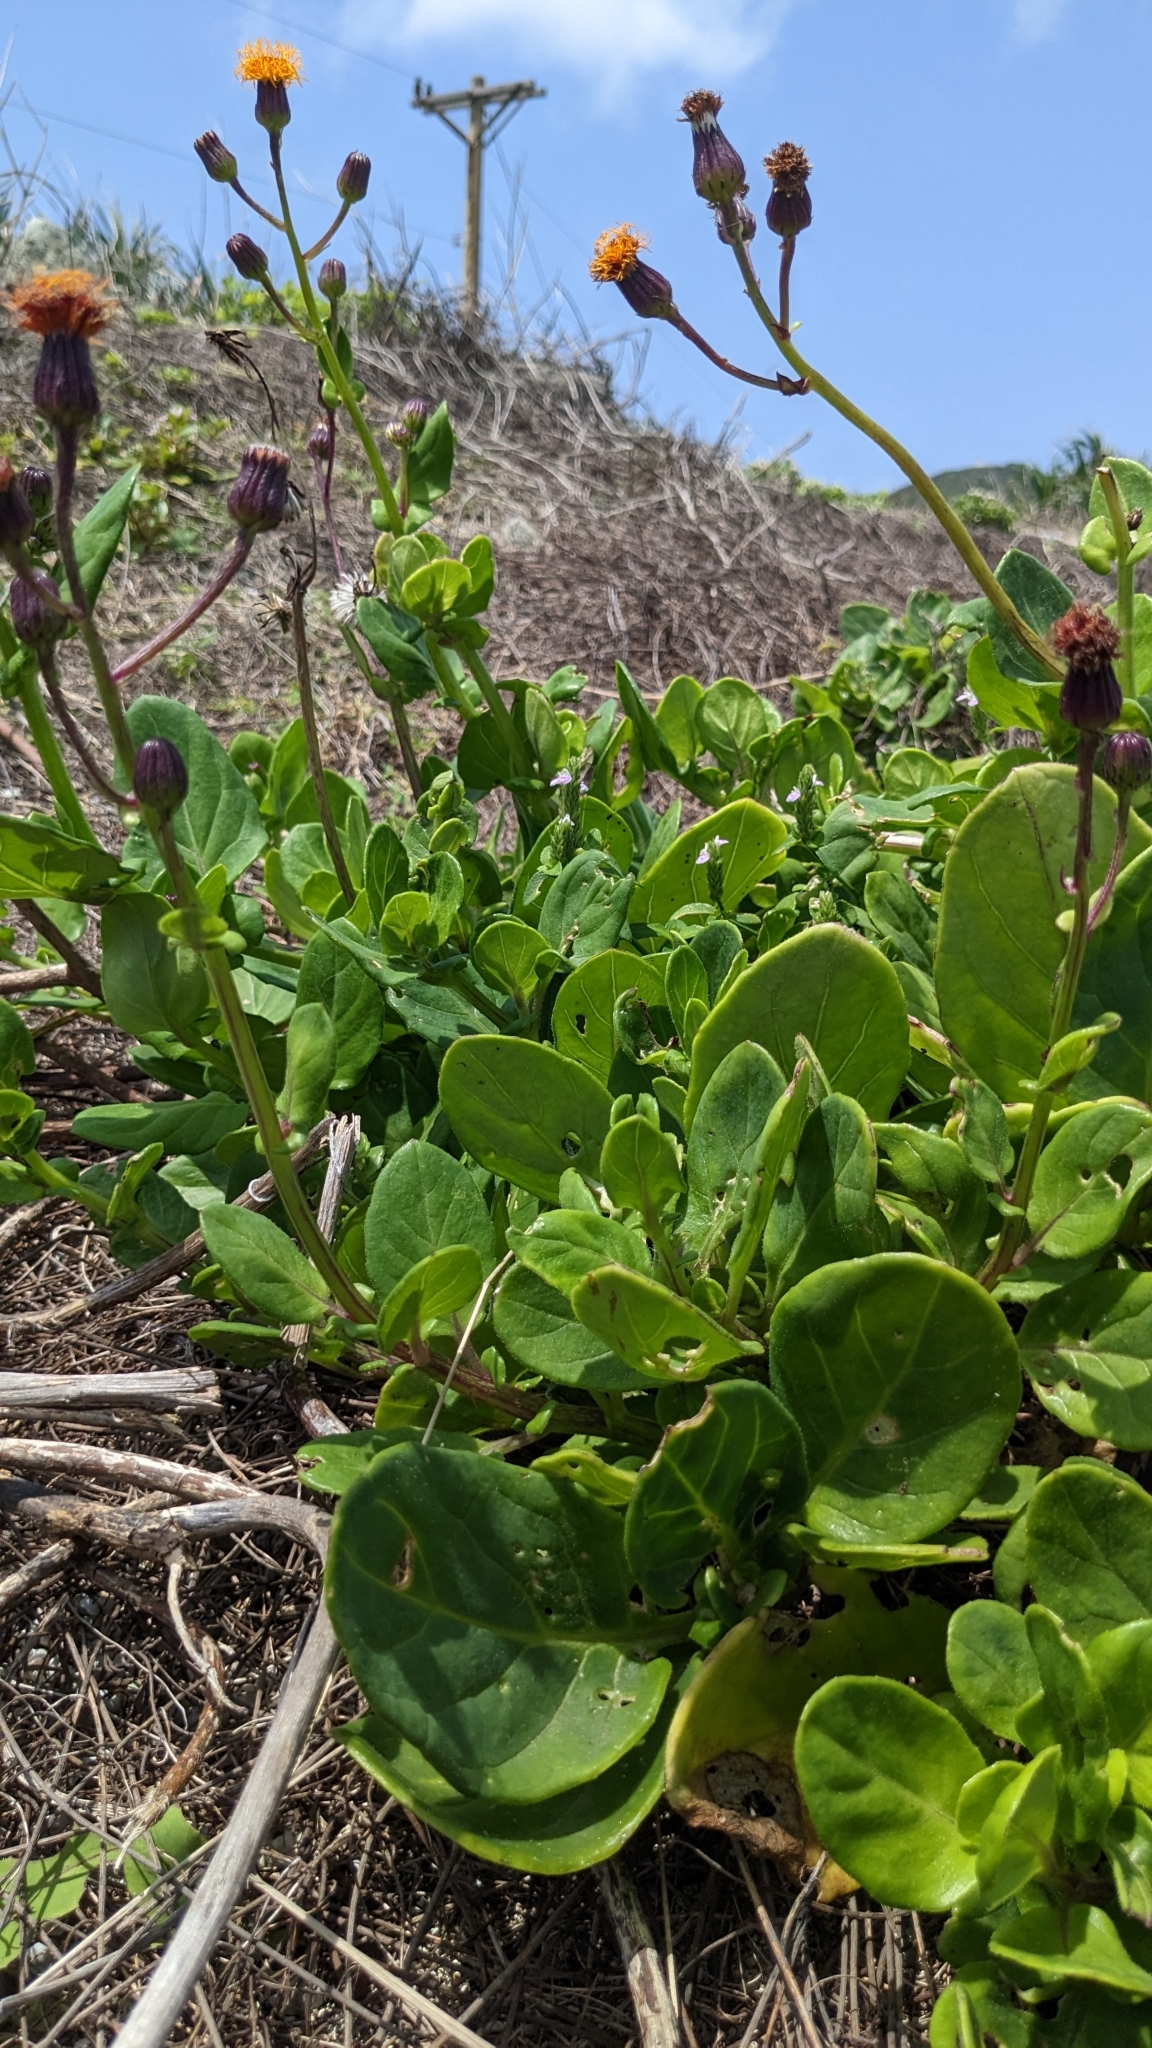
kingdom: Plantae
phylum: Tracheophyta
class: Magnoliopsida
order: Asterales
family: Asteraceae
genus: Gynura
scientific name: Gynura elliptica
